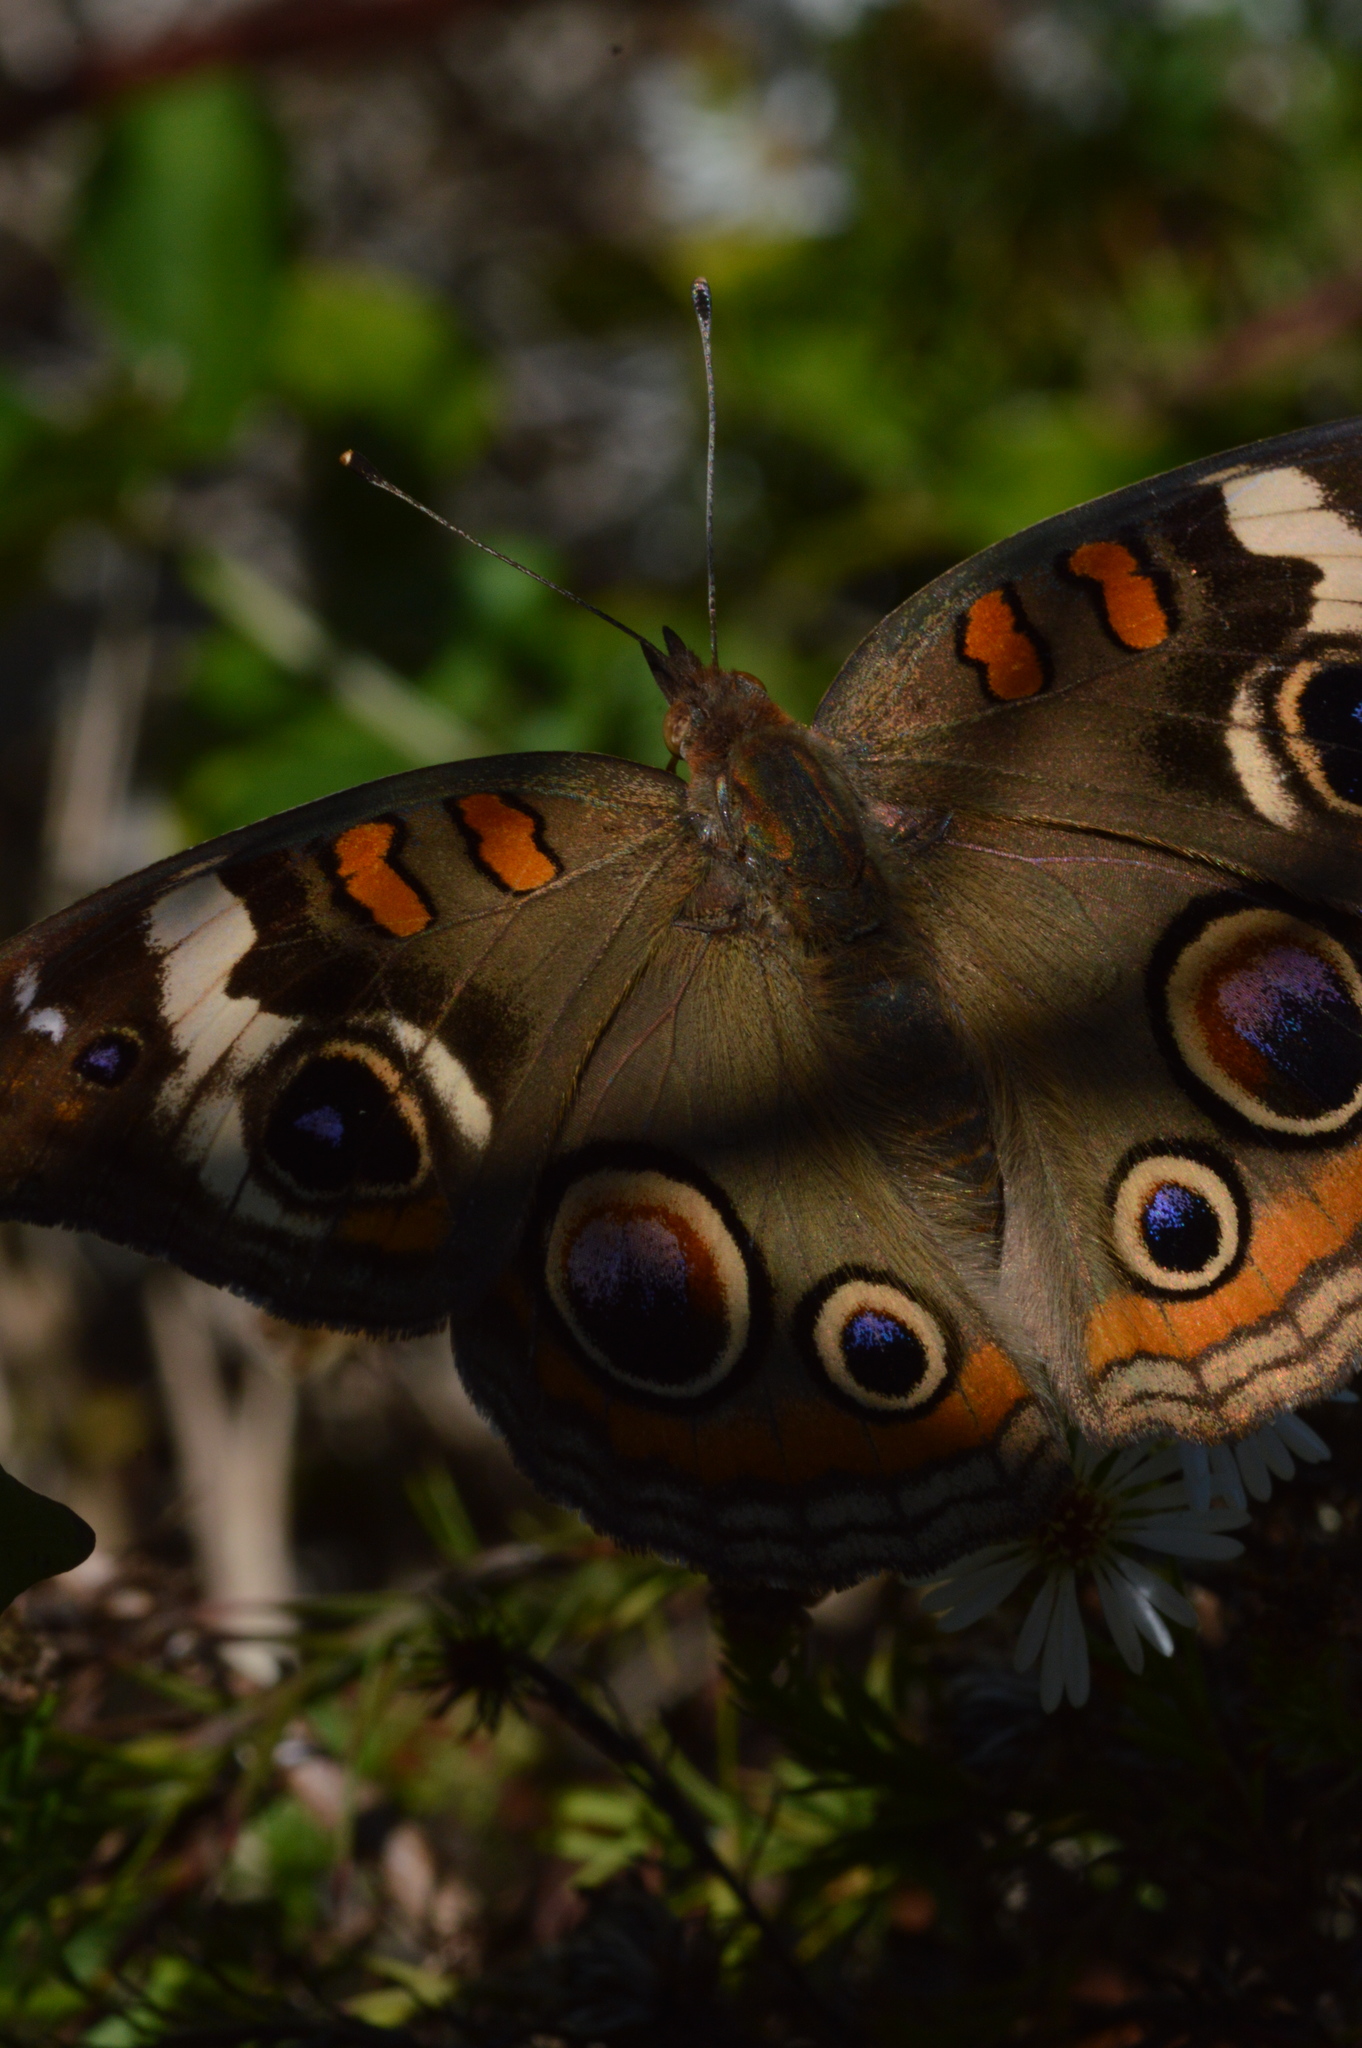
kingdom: Animalia
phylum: Arthropoda
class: Insecta
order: Lepidoptera
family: Nymphalidae
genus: Junonia
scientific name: Junonia coenia
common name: Common buckeye
